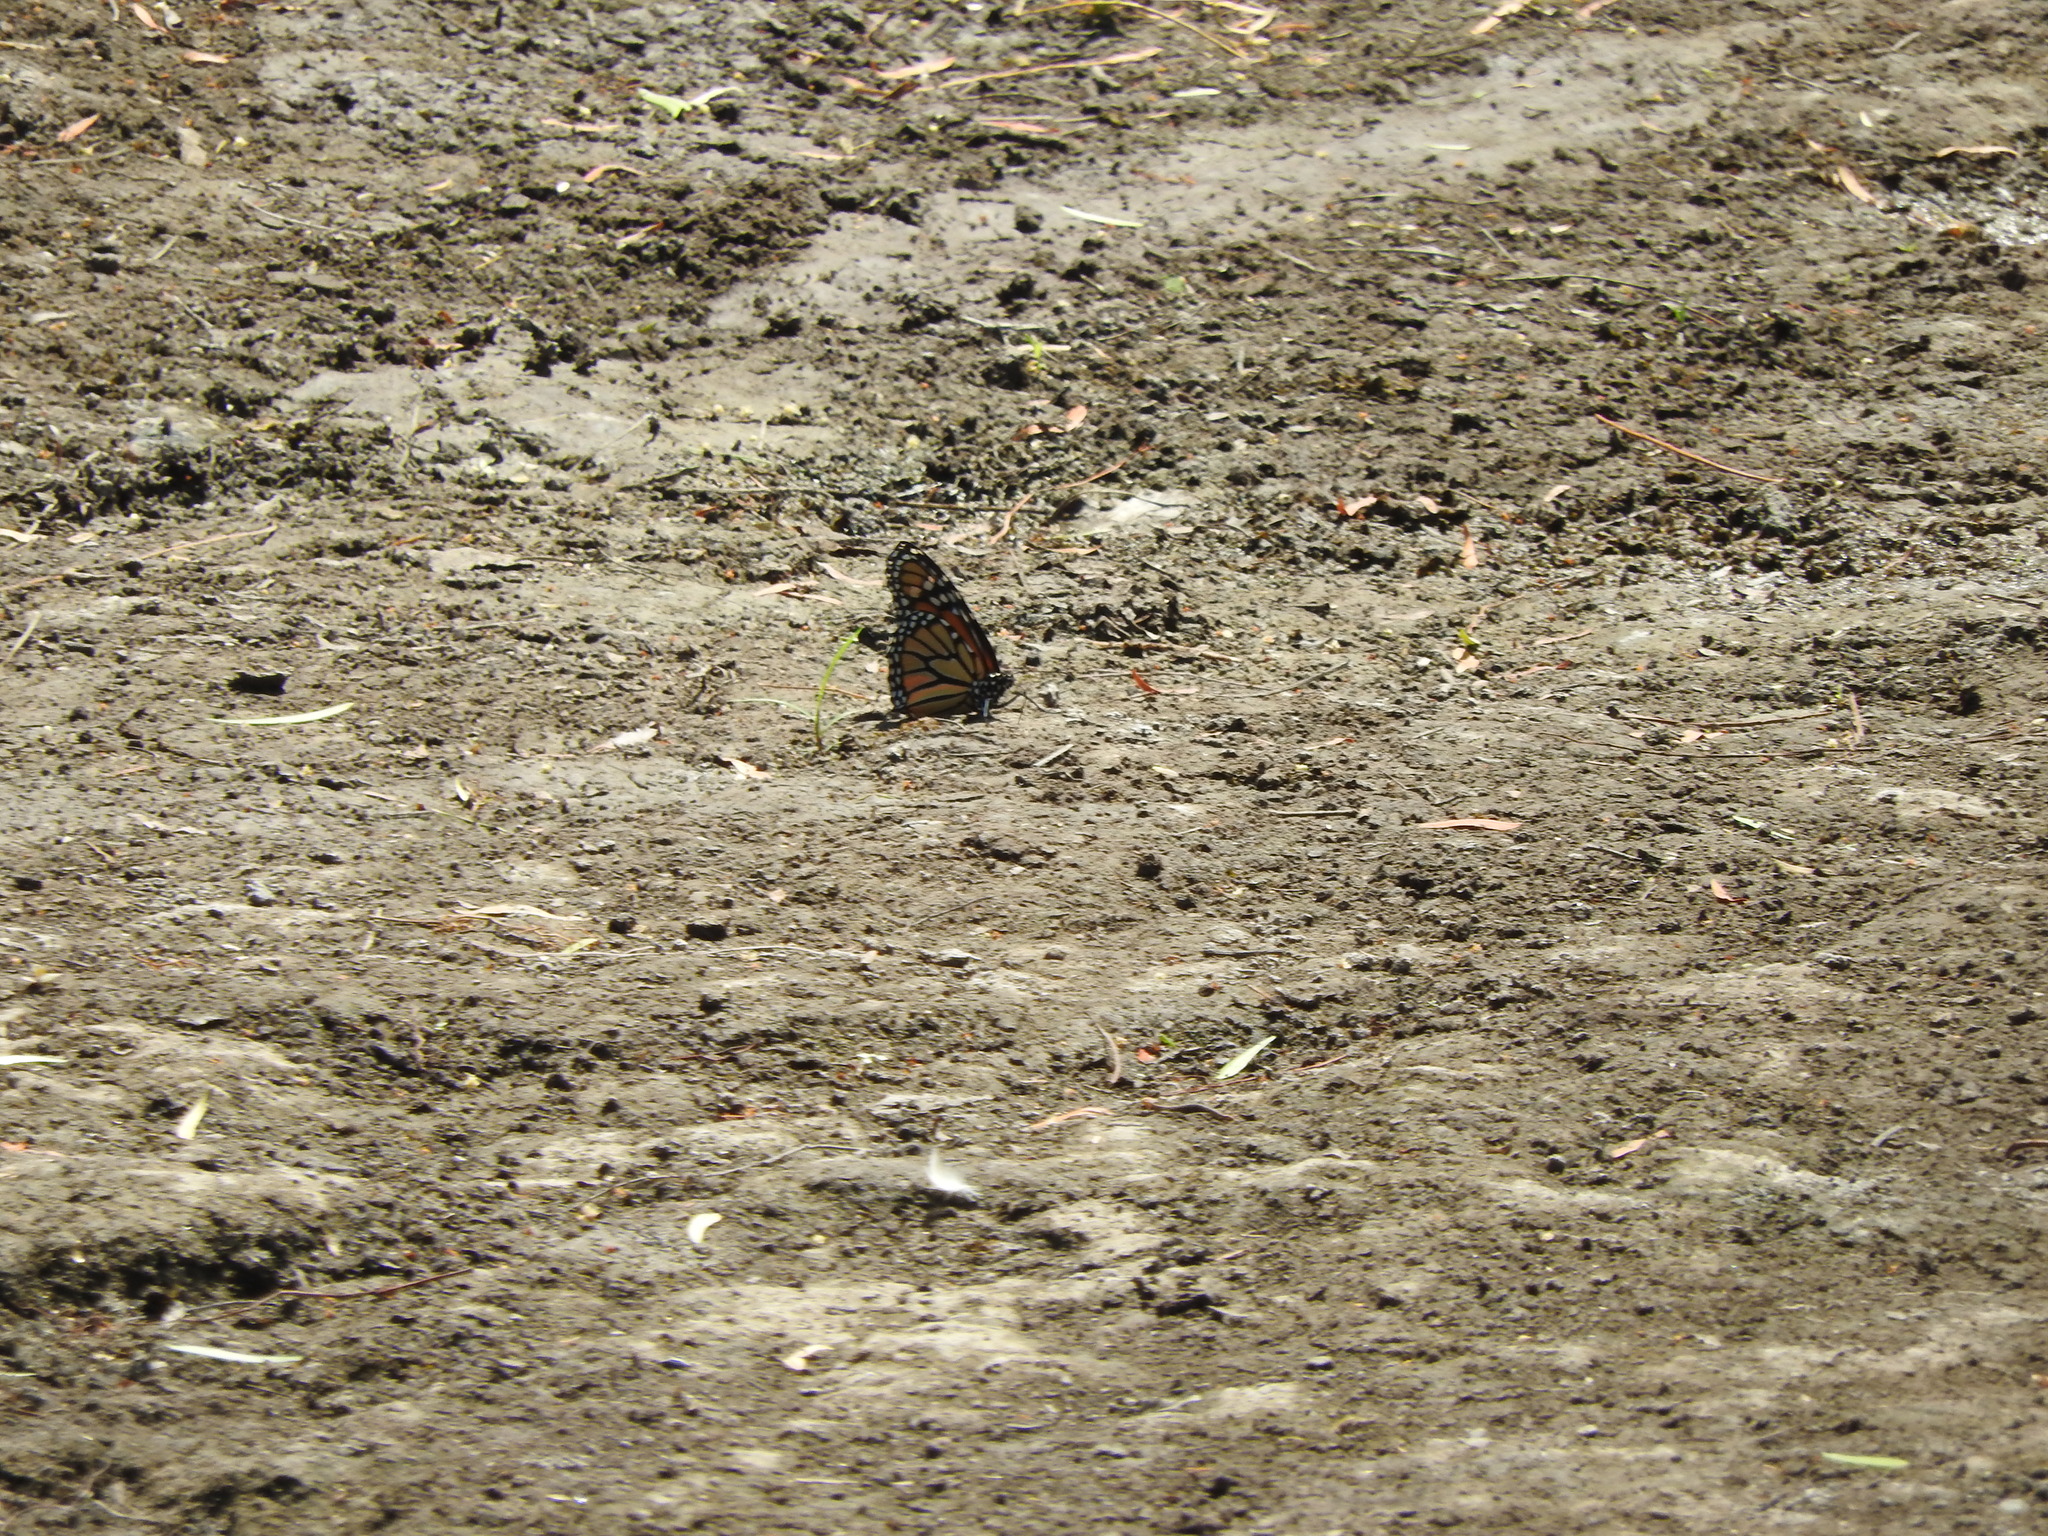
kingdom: Animalia
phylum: Arthropoda
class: Insecta
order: Lepidoptera
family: Nymphalidae
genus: Danaus
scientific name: Danaus plexippus
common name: Monarch
